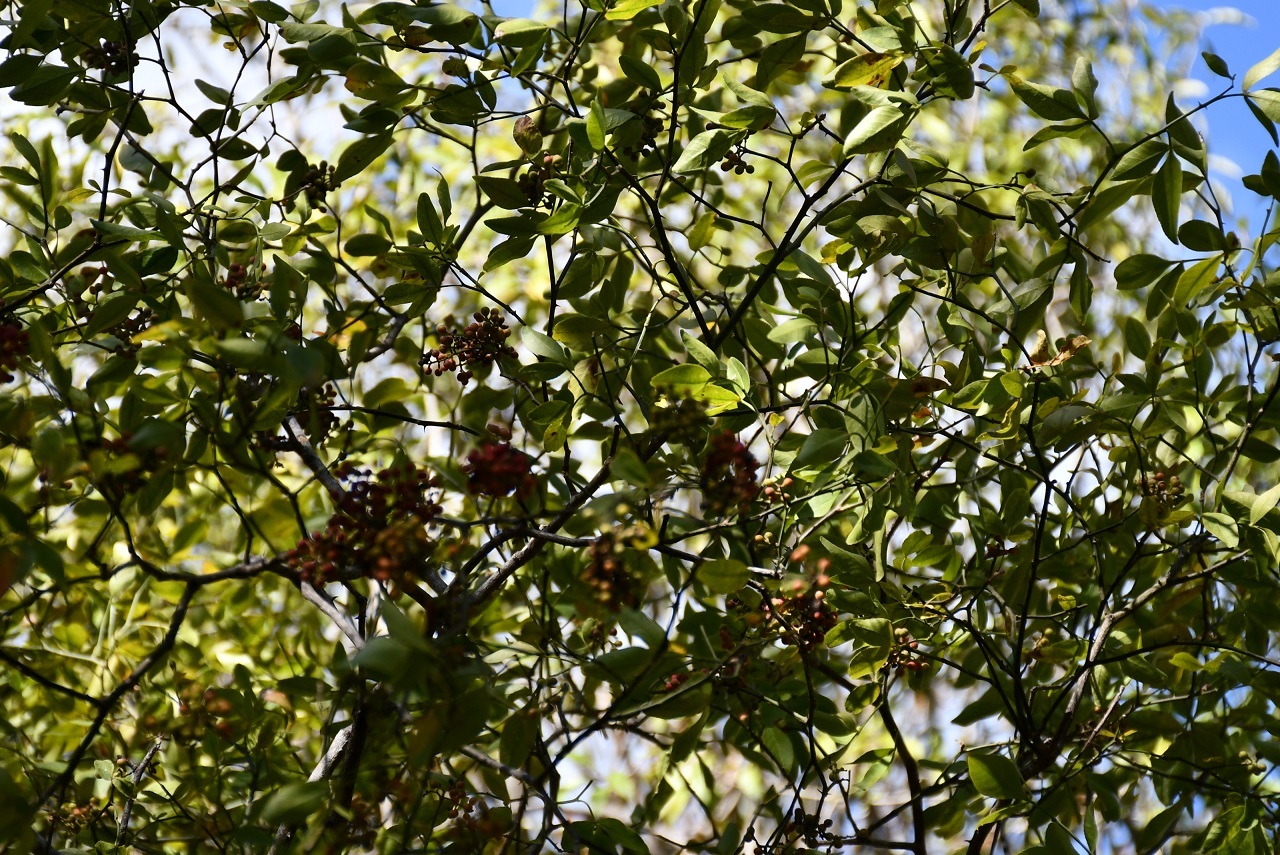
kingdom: Plantae
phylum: Tracheophyta
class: Magnoliopsida
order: Sapindales
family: Rutaceae
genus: Zanthoxylum
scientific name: Zanthoxylum arborescens
